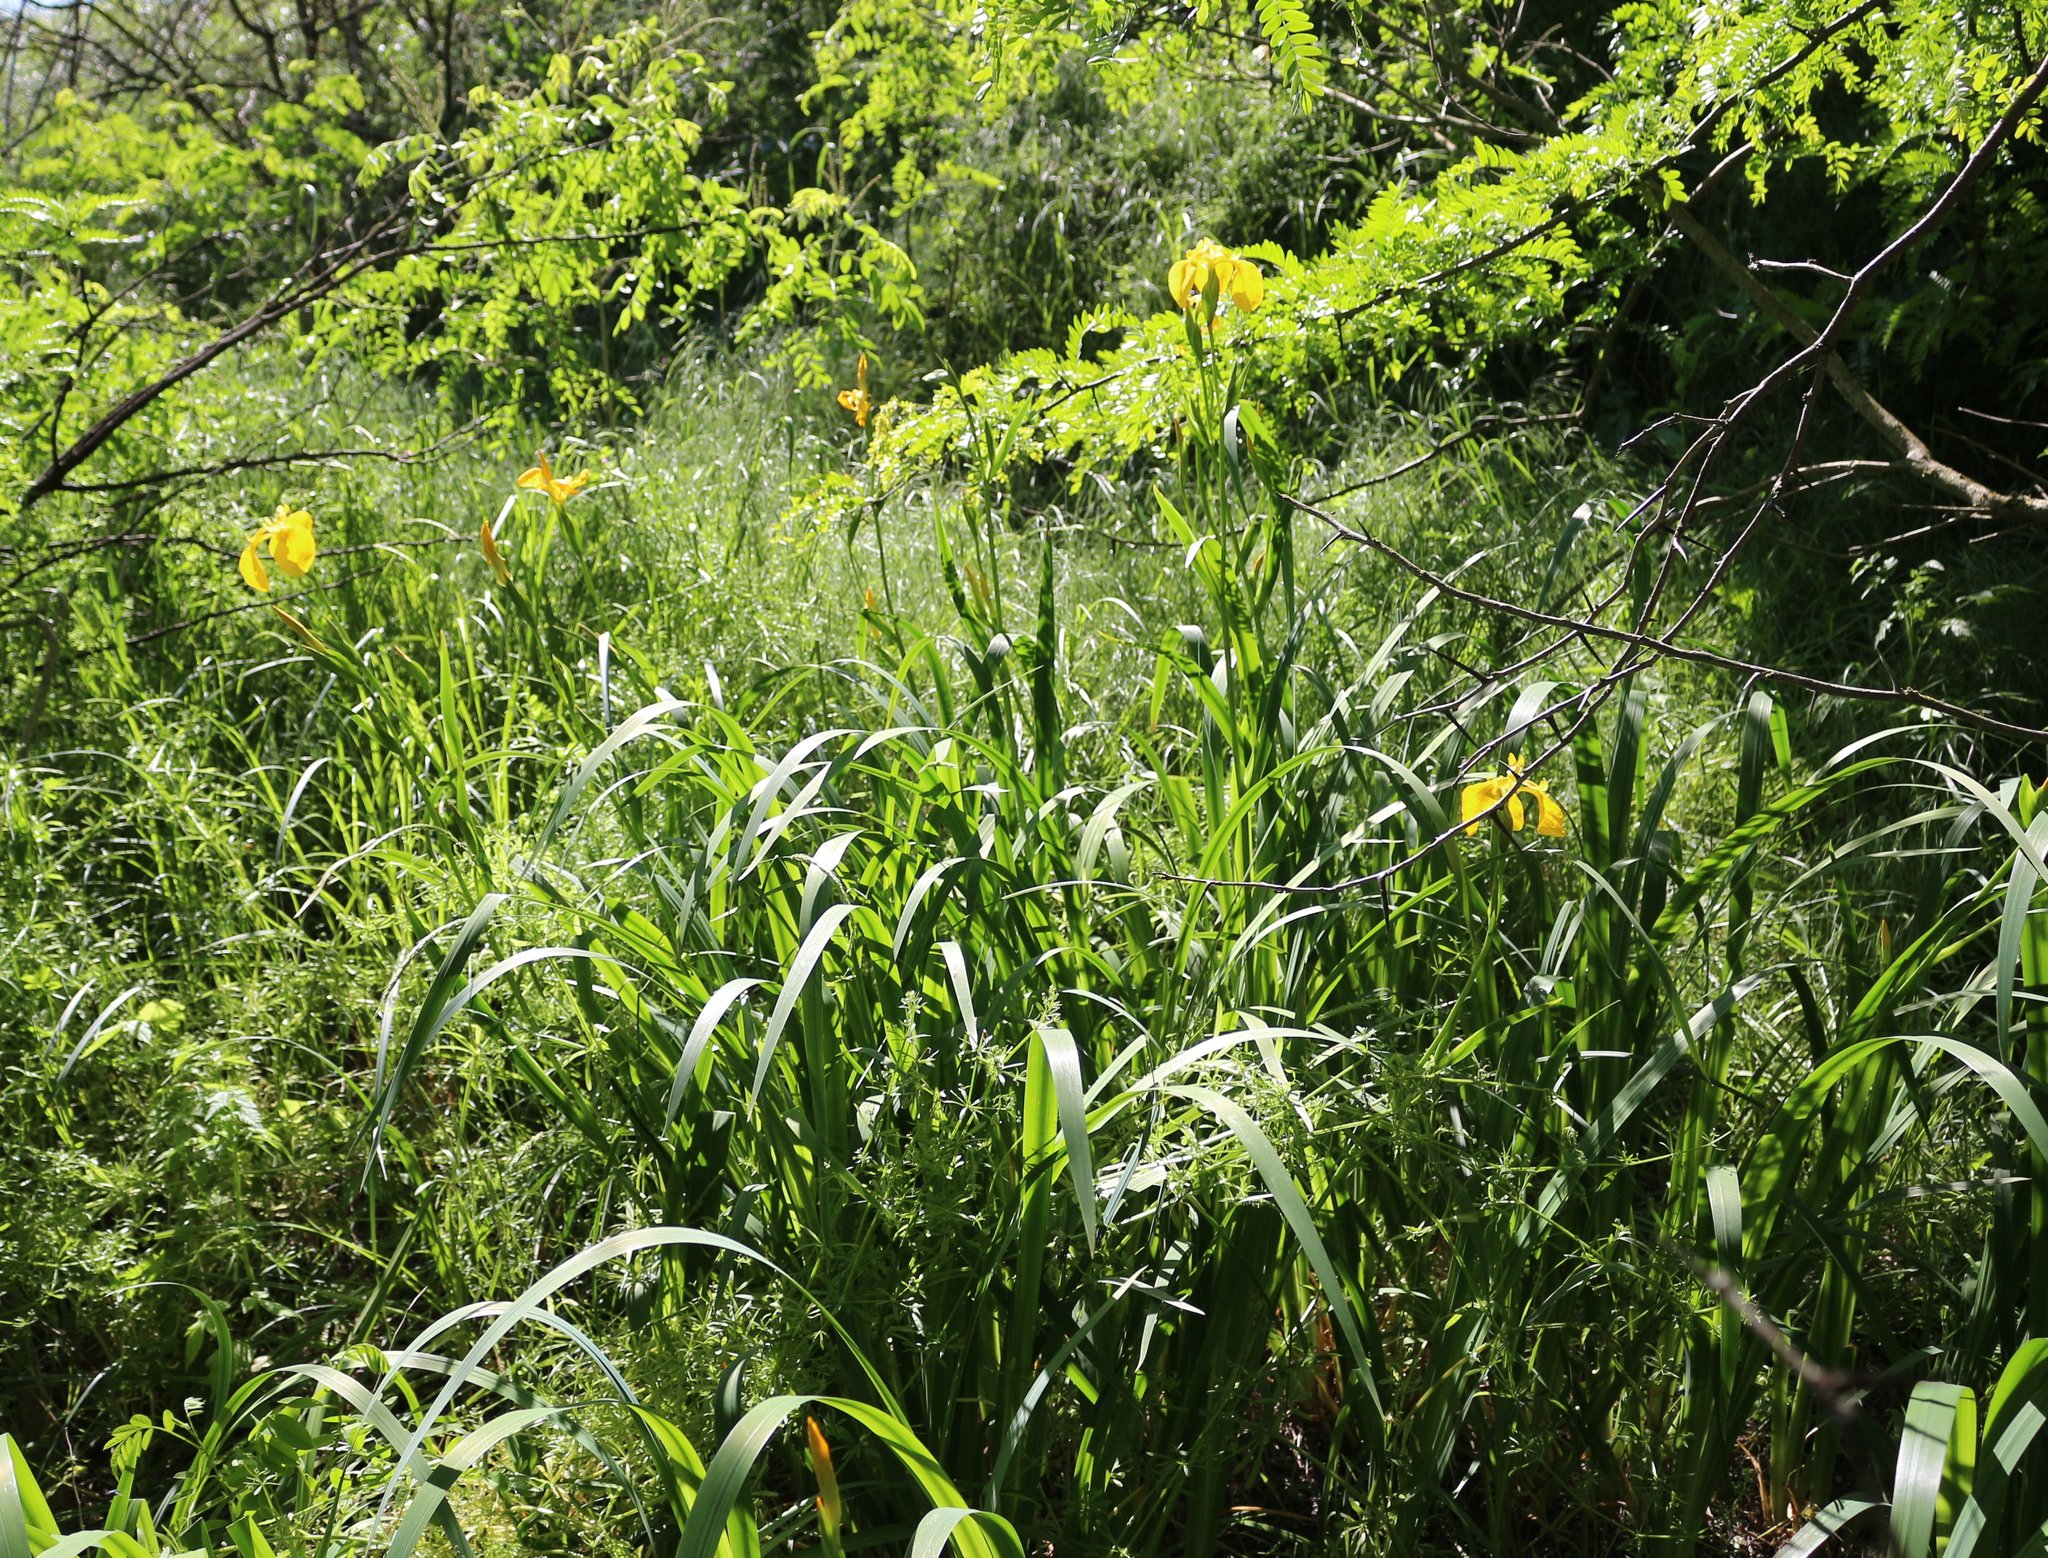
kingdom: Plantae
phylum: Tracheophyta
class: Liliopsida
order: Asparagales
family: Iridaceae
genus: Iris
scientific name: Iris pseudacorus
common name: Yellow flag
